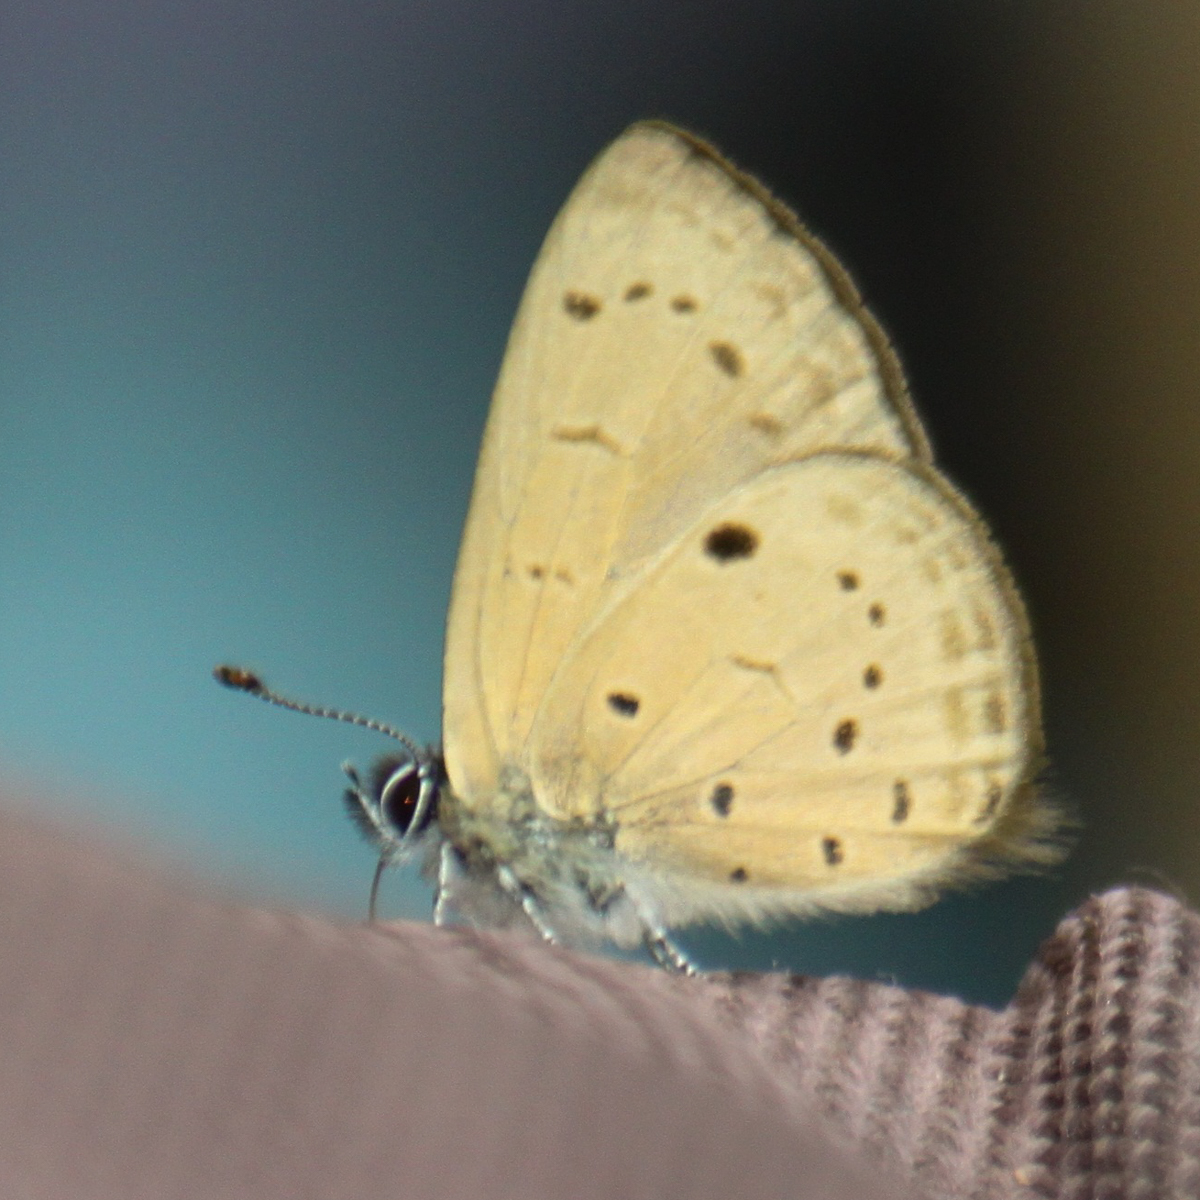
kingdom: Animalia
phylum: Arthropoda
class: Insecta
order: Lepidoptera
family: Lycaenidae
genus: Una
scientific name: Una usta
